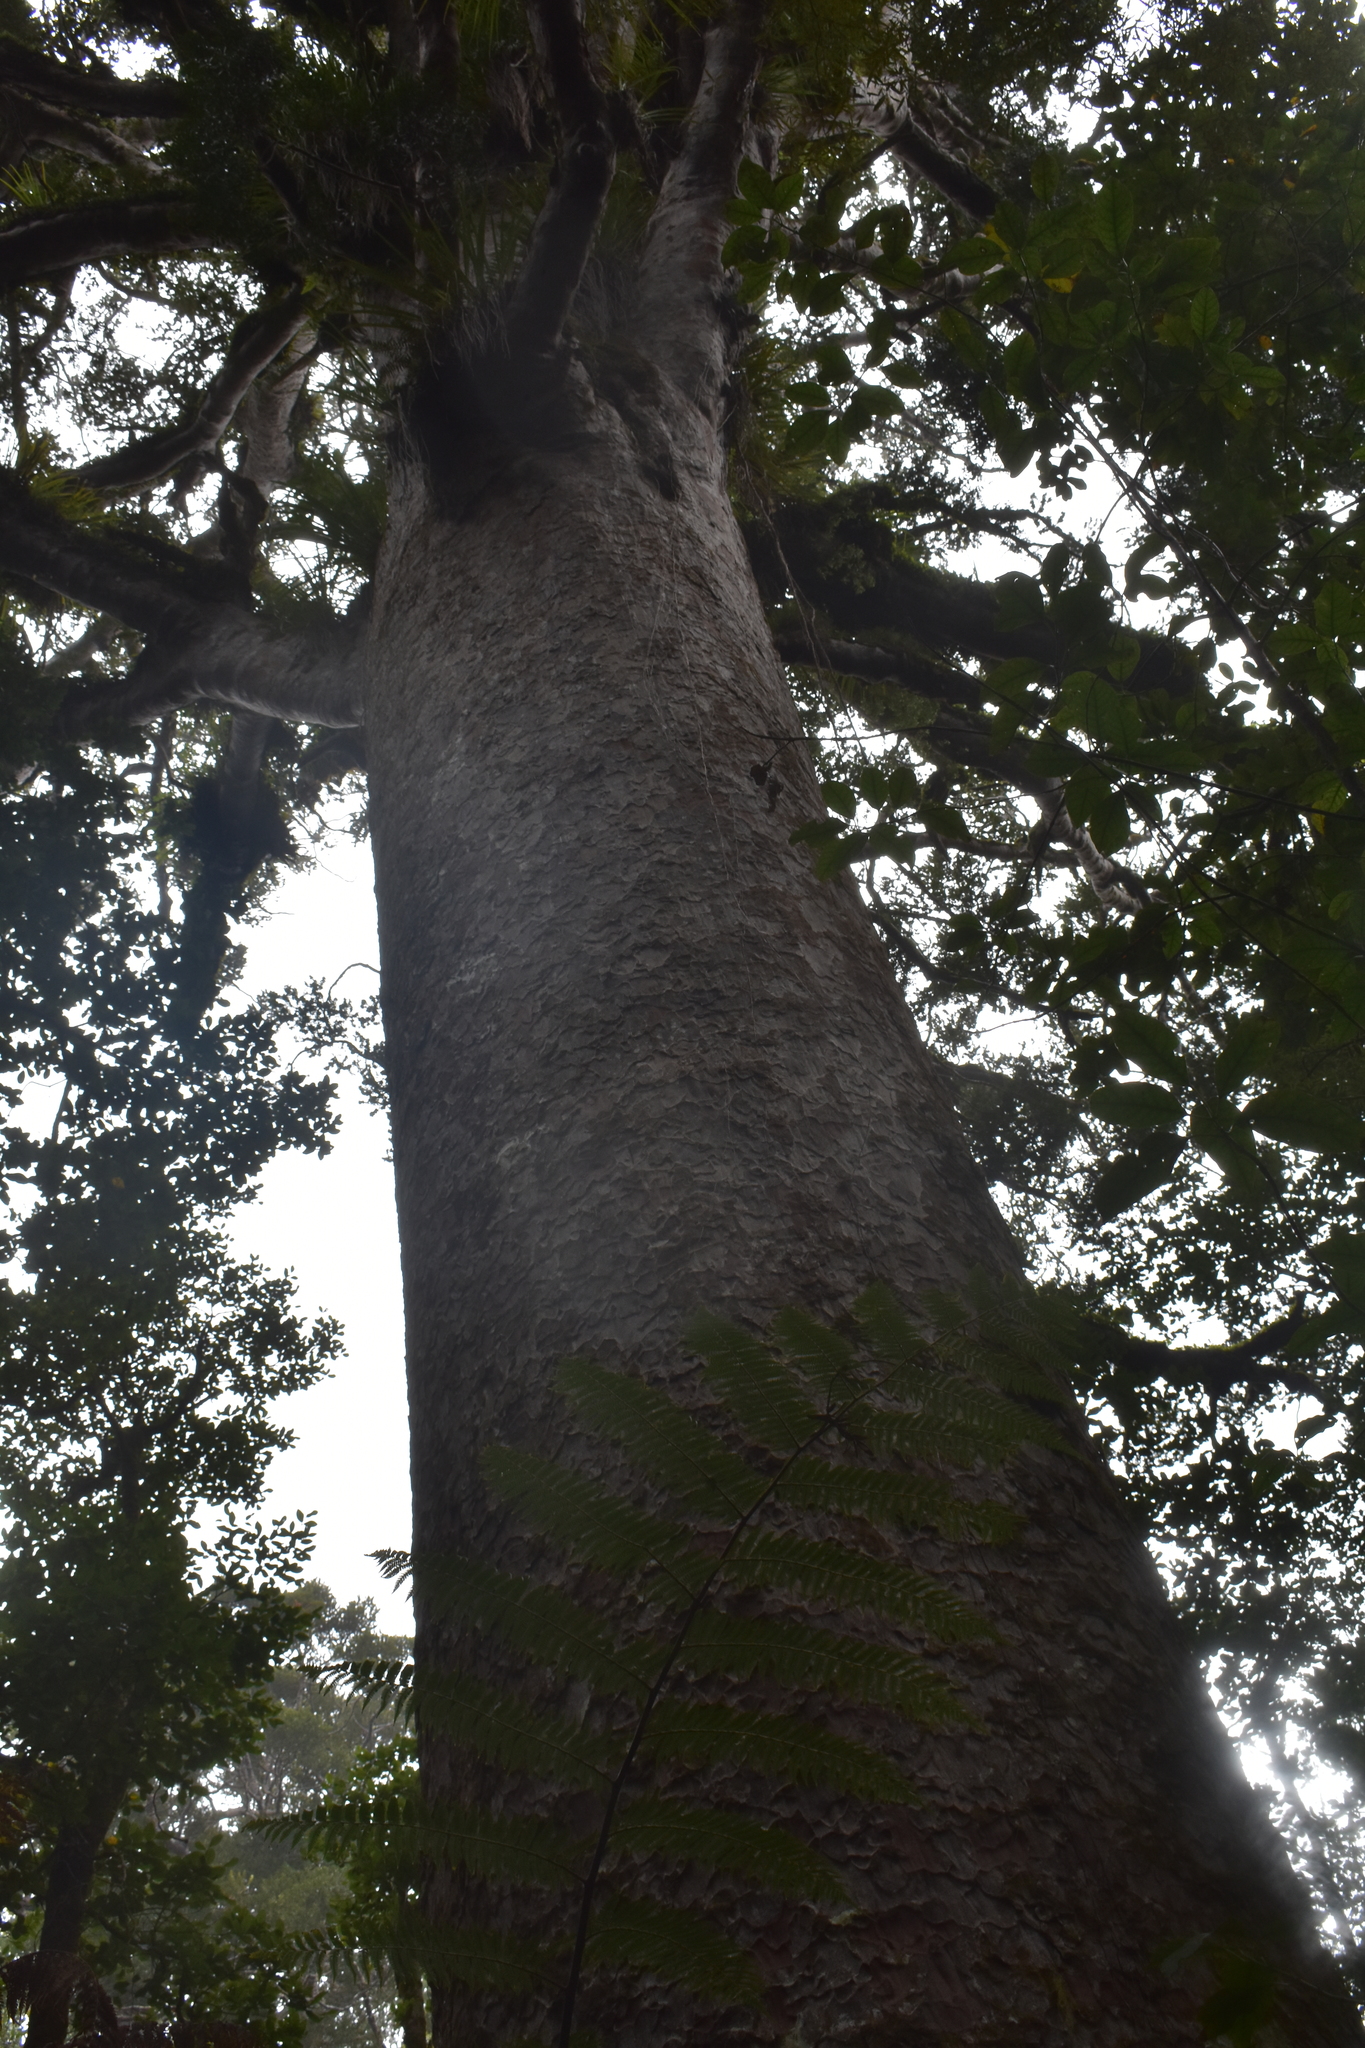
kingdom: Plantae
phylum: Tracheophyta
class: Pinopsida
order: Pinales
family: Araucariaceae
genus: Agathis
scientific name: Agathis australis
